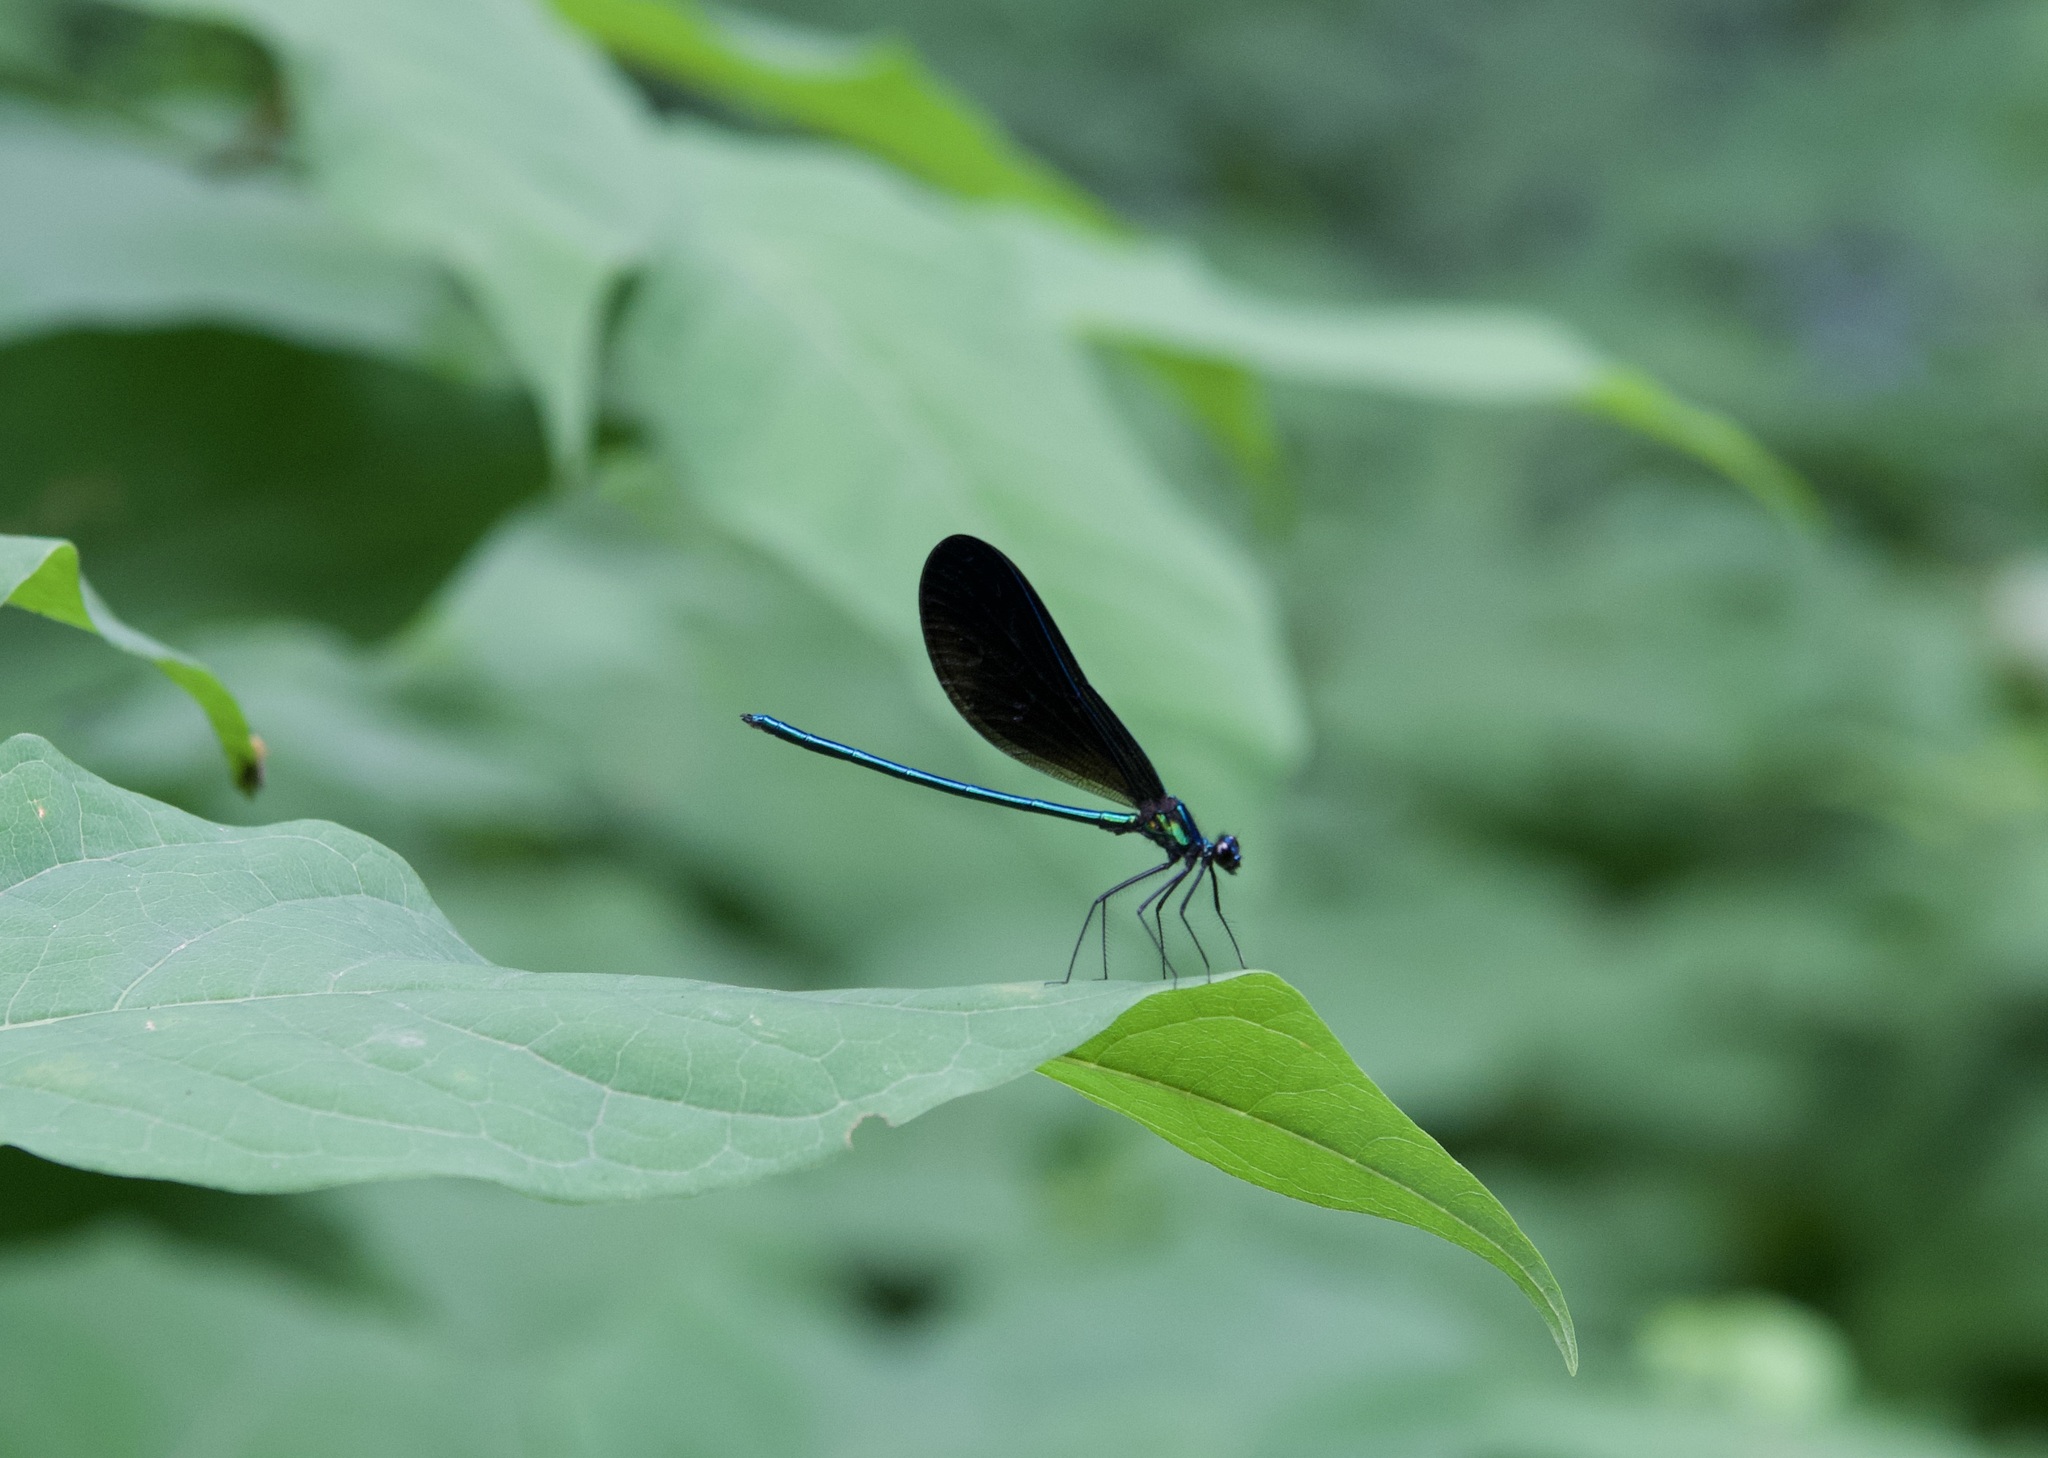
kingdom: Animalia
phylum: Arthropoda
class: Insecta
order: Odonata
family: Calopterygidae
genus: Calopteryx
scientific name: Calopteryx maculata
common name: Ebony jewelwing
